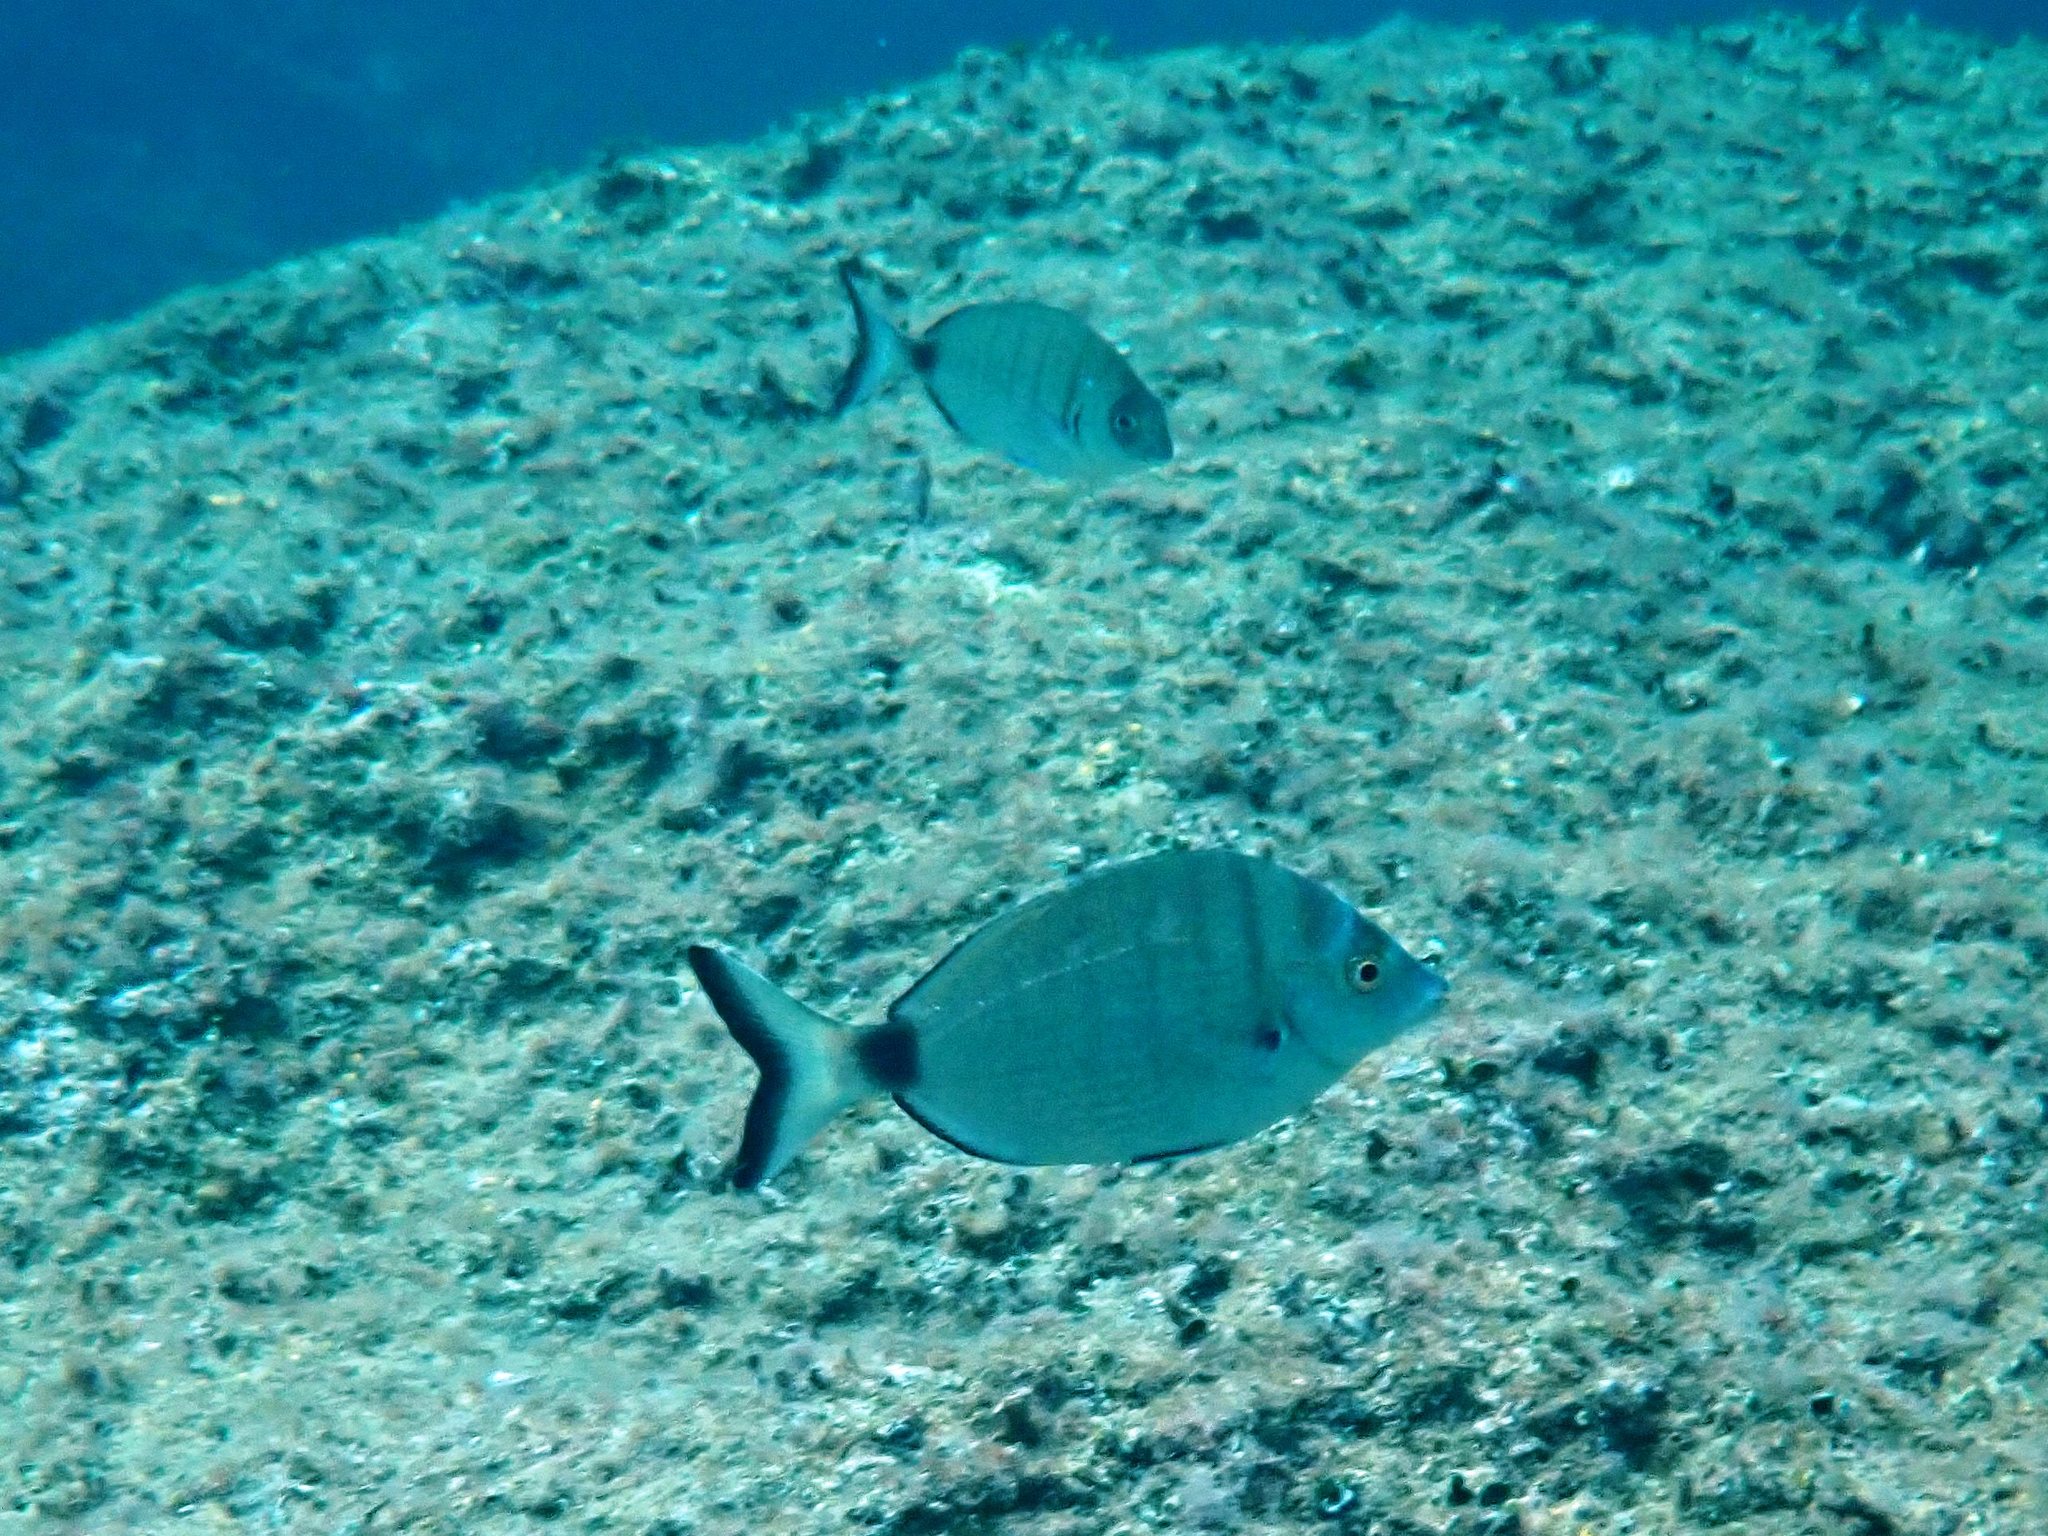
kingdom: Animalia
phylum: Chordata
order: Perciformes
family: Sparidae
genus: Diplodus
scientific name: Diplodus puntazzo
